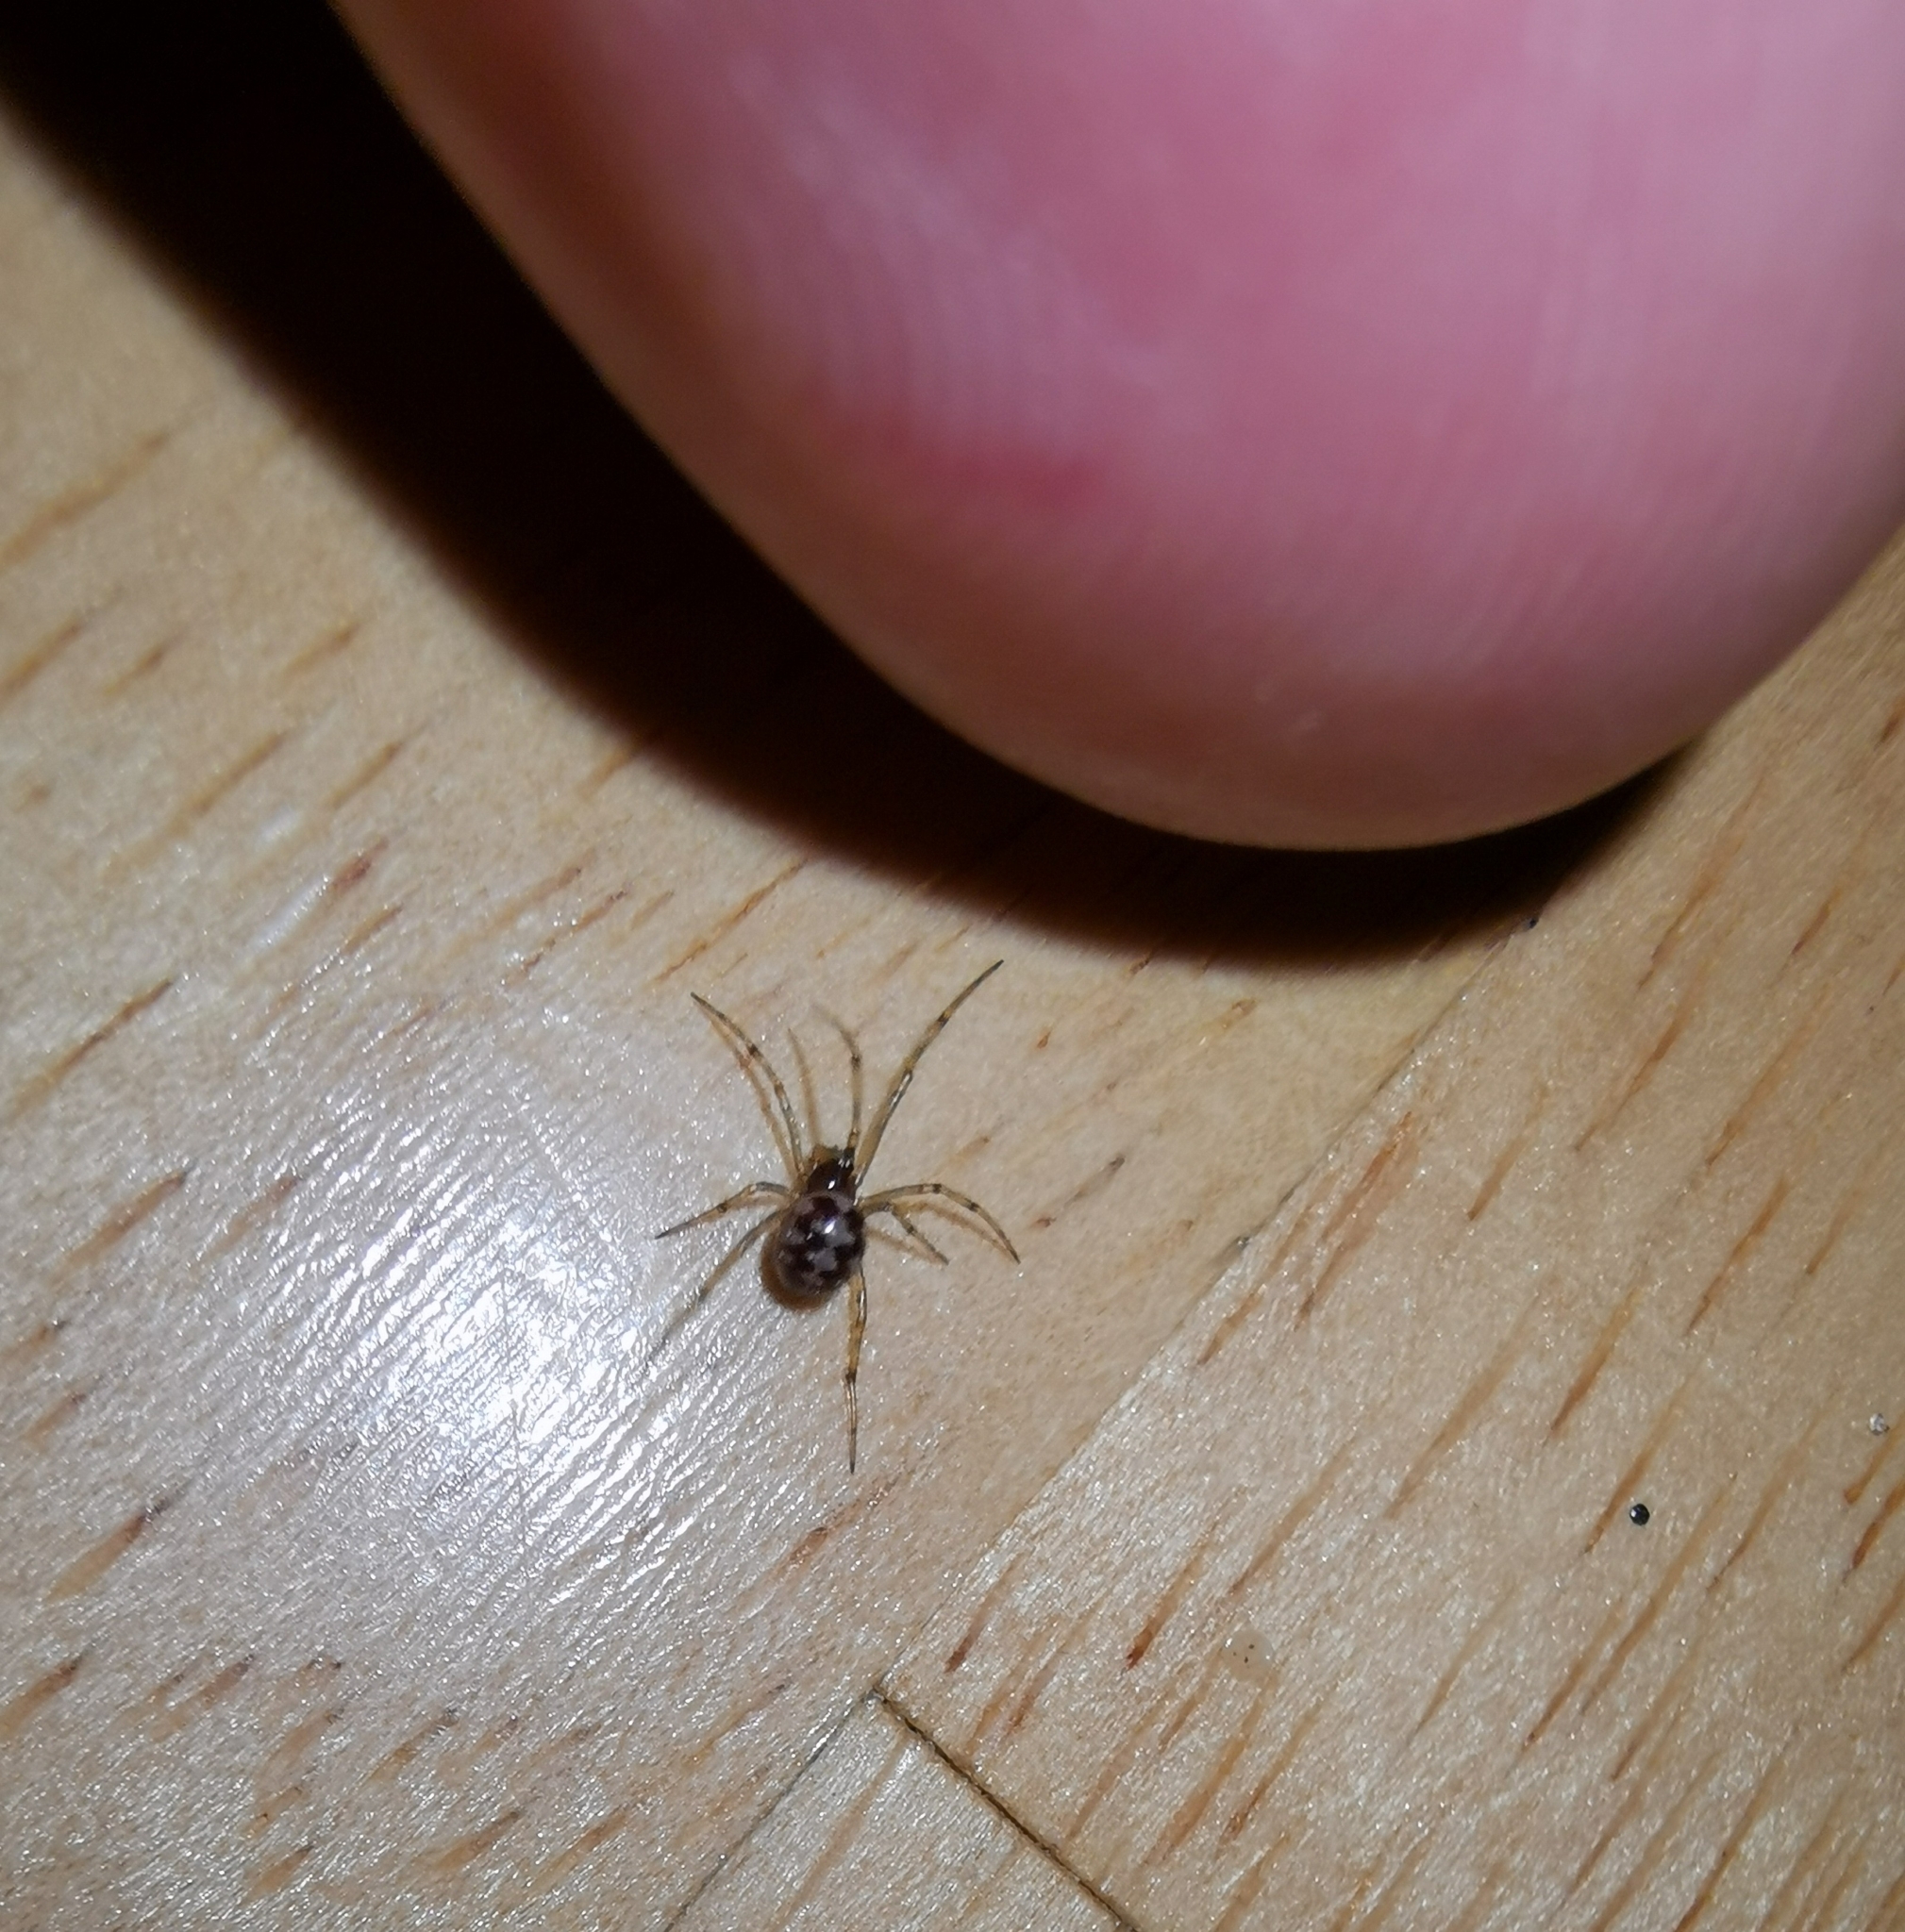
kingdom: Animalia
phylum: Arthropoda
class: Arachnida
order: Araneae
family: Theridiidae
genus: Steatoda
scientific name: Steatoda triangulosa
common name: Triangulate bud spider
